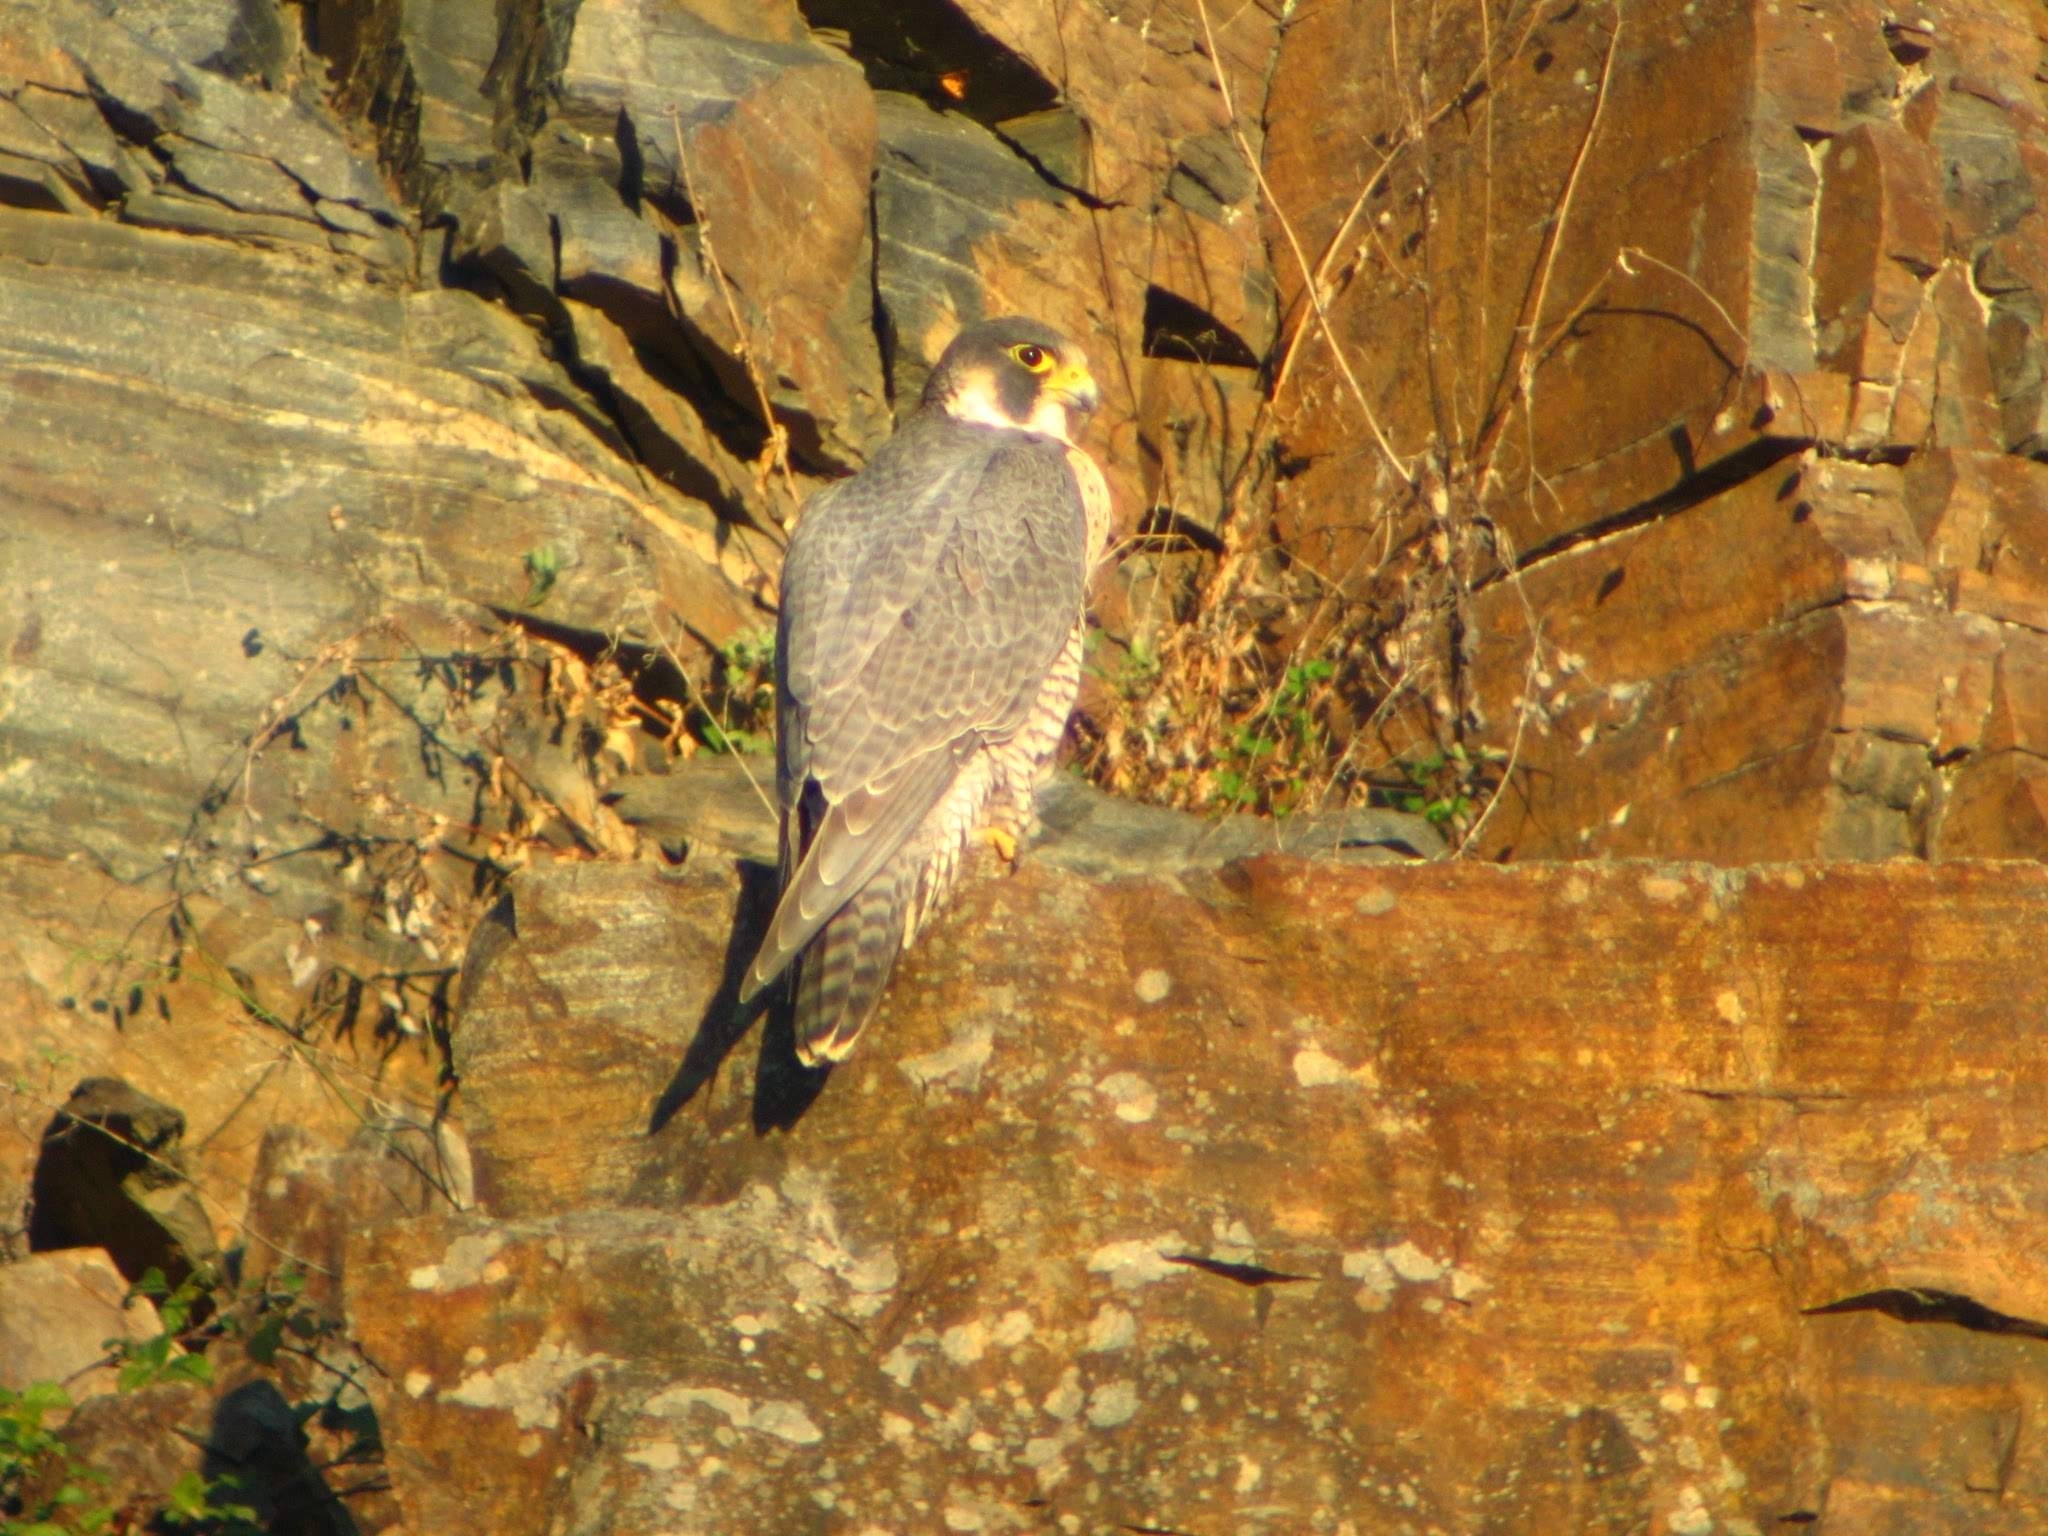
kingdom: Animalia
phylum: Chordata
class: Aves
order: Falconiformes
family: Falconidae
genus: Falco
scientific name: Falco peregrinus
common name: Peregrine falcon
